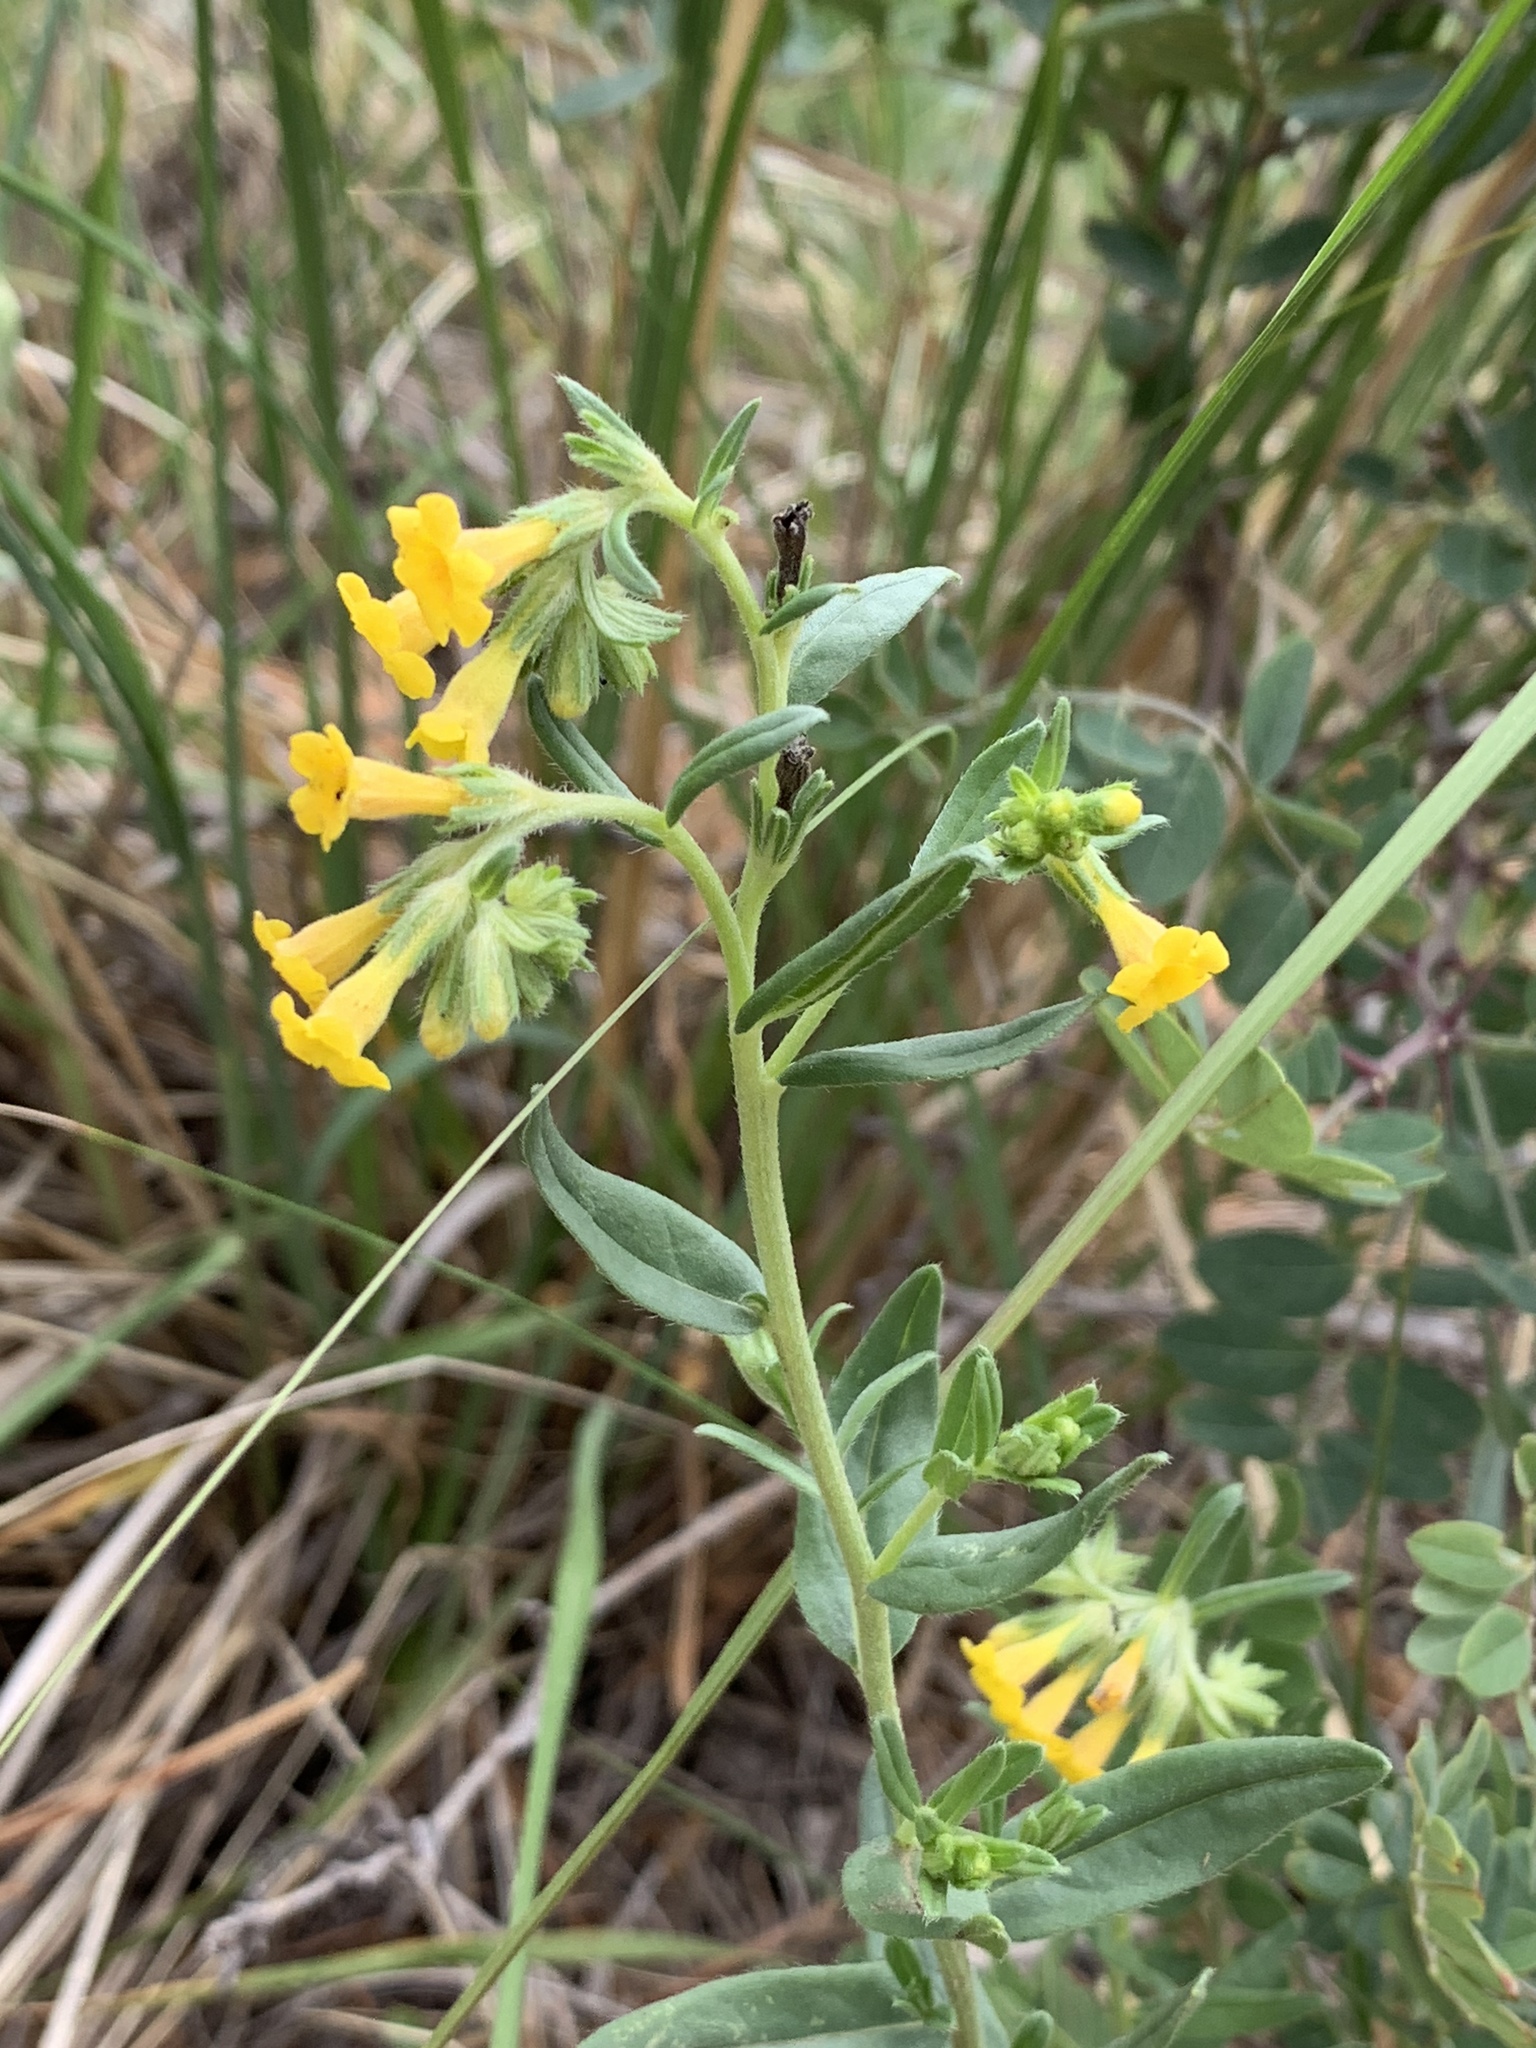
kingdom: Plantae
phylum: Tracheophyta
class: Magnoliopsida
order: Boraginales
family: Boraginaceae
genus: Lithospermum
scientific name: Lithospermum multiflorum
